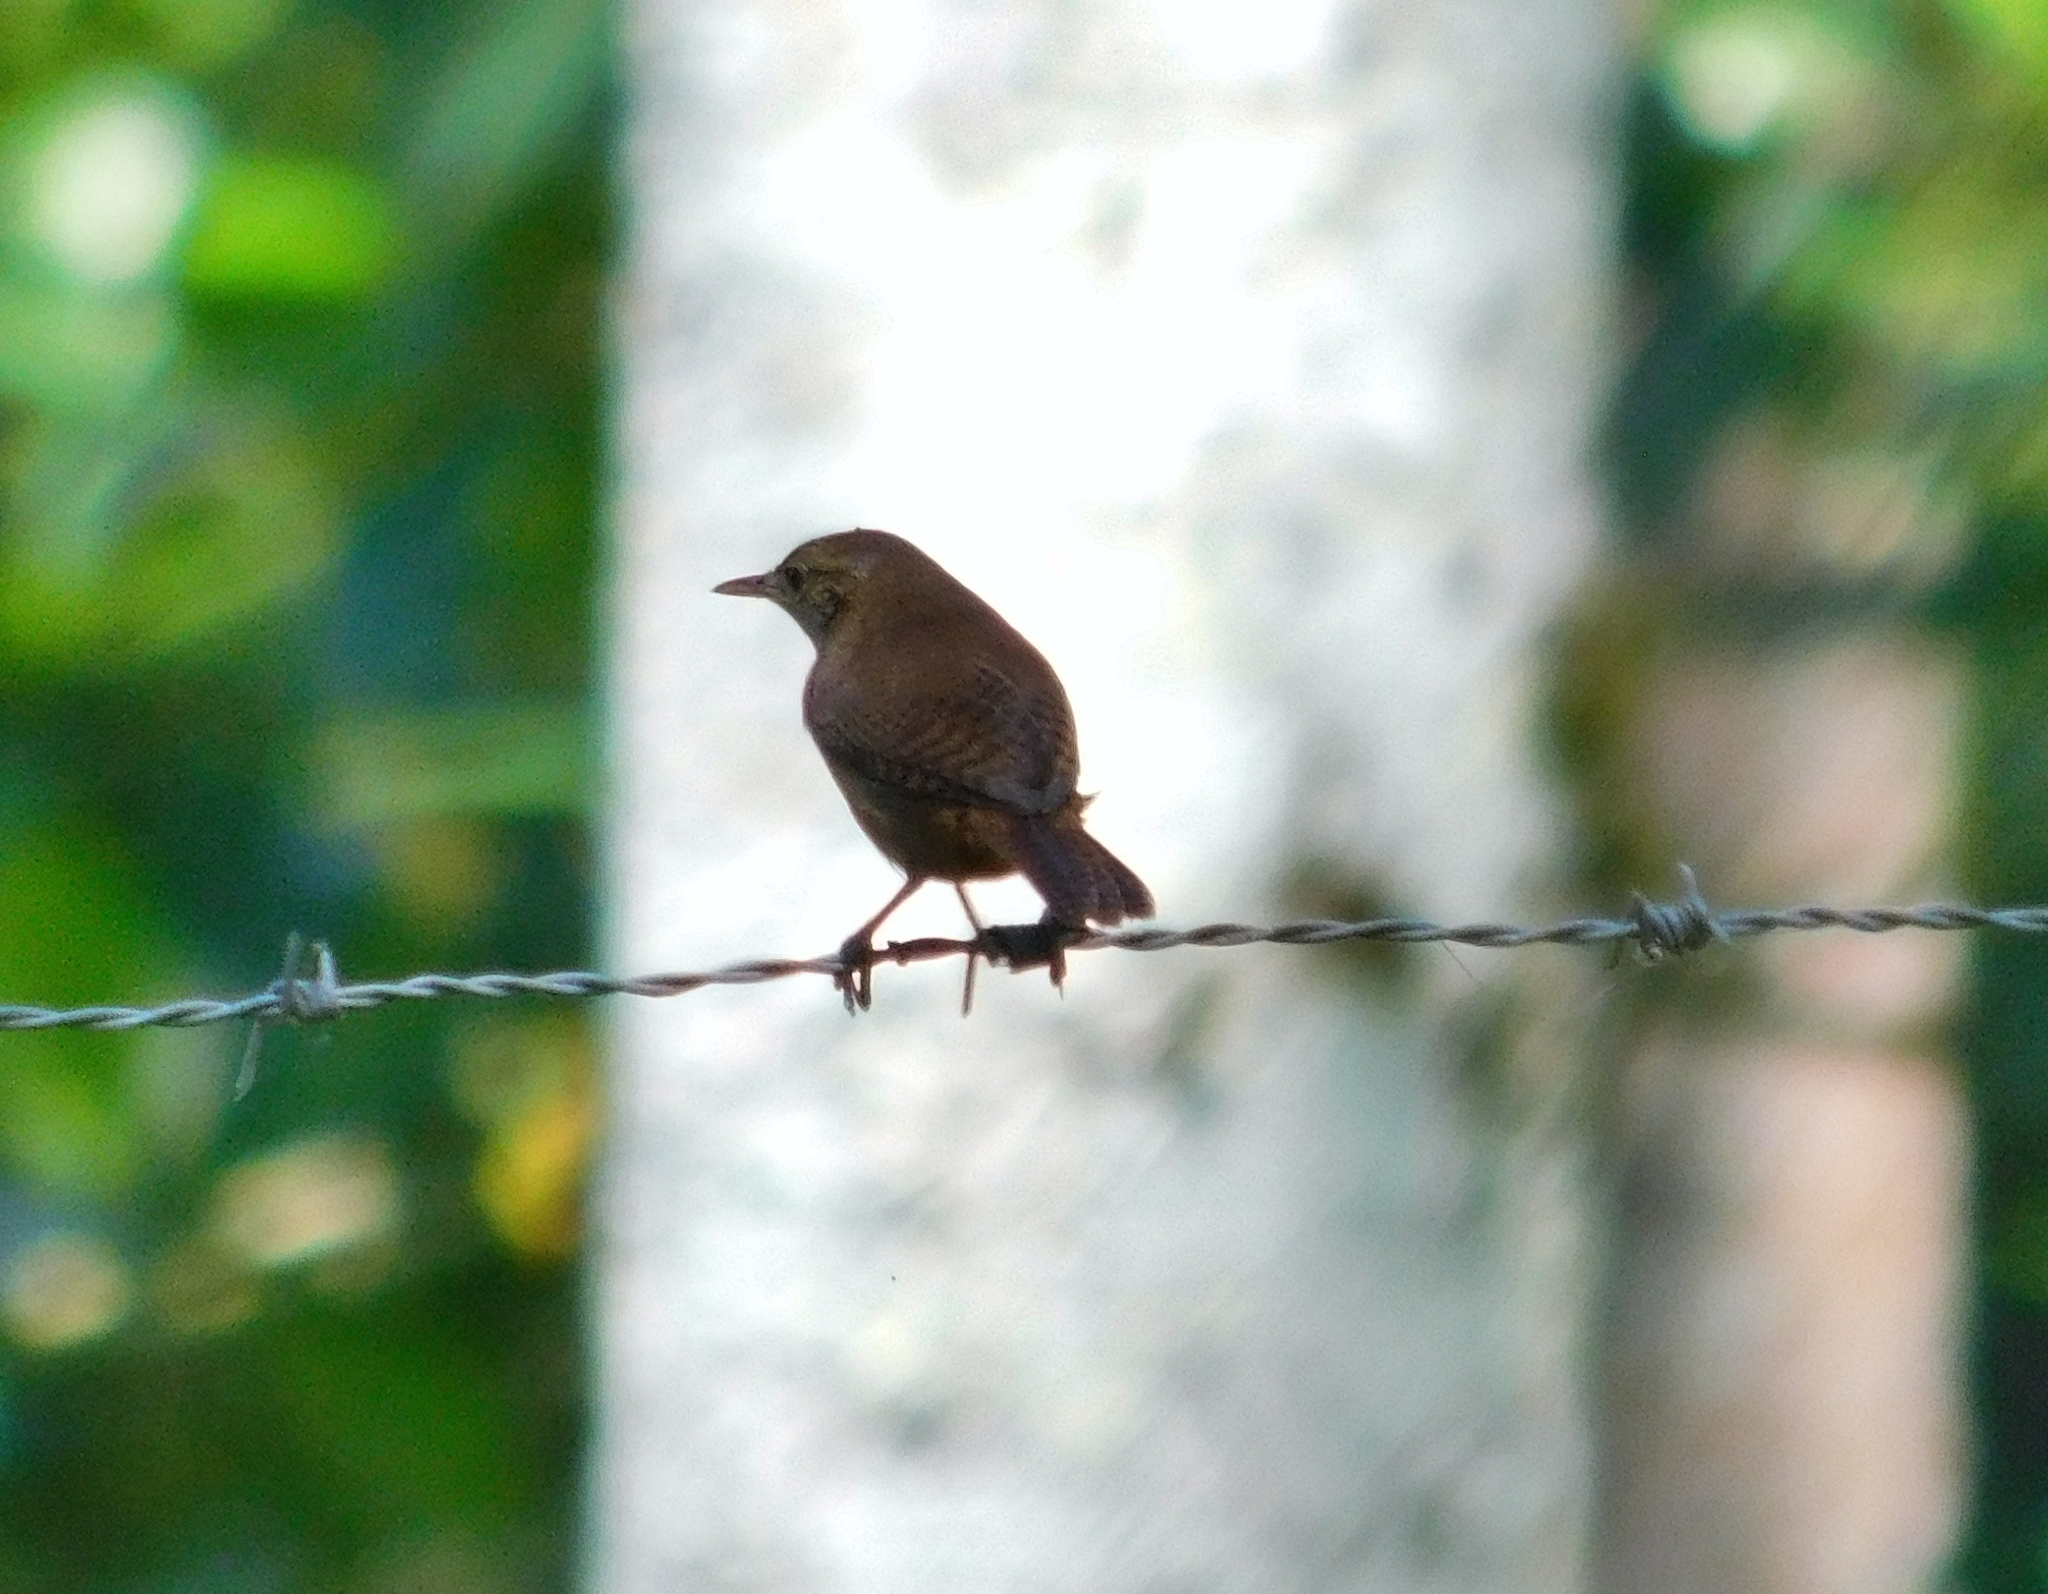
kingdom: Animalia
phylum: Chordata
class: Aves
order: Passeriformes
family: Troglodytidae
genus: Troglodytes
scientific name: Troglodytes aedon
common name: House wren
